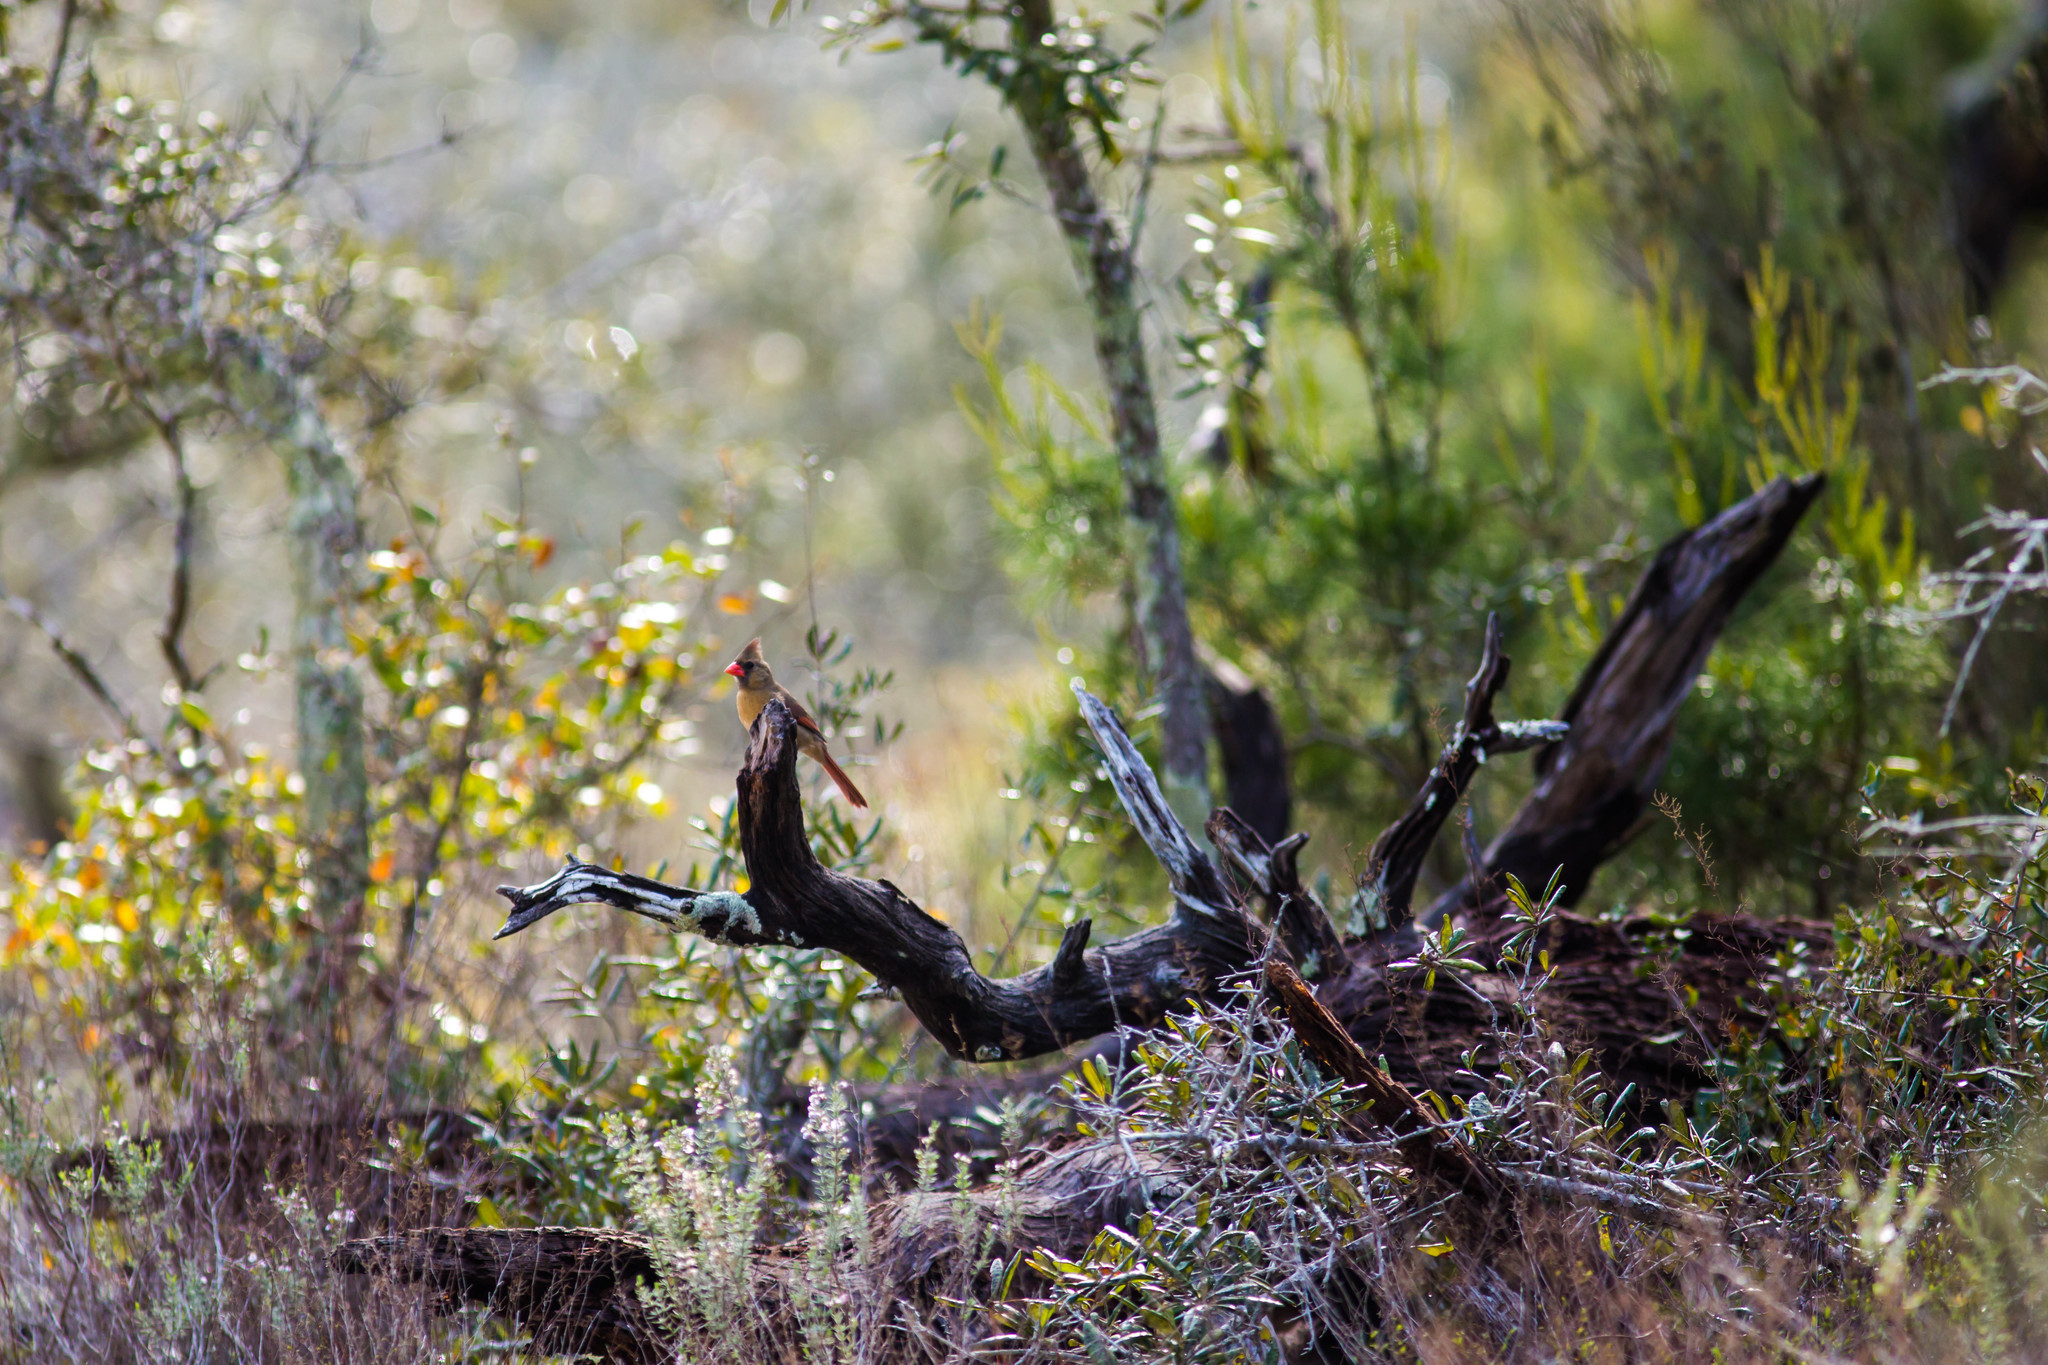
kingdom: Animalia
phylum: Chordata
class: Aves
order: Passeriformes
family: Cardinalidae
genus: Cardinalis
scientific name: Cardinalis cardinalis
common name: Northern cardinal
